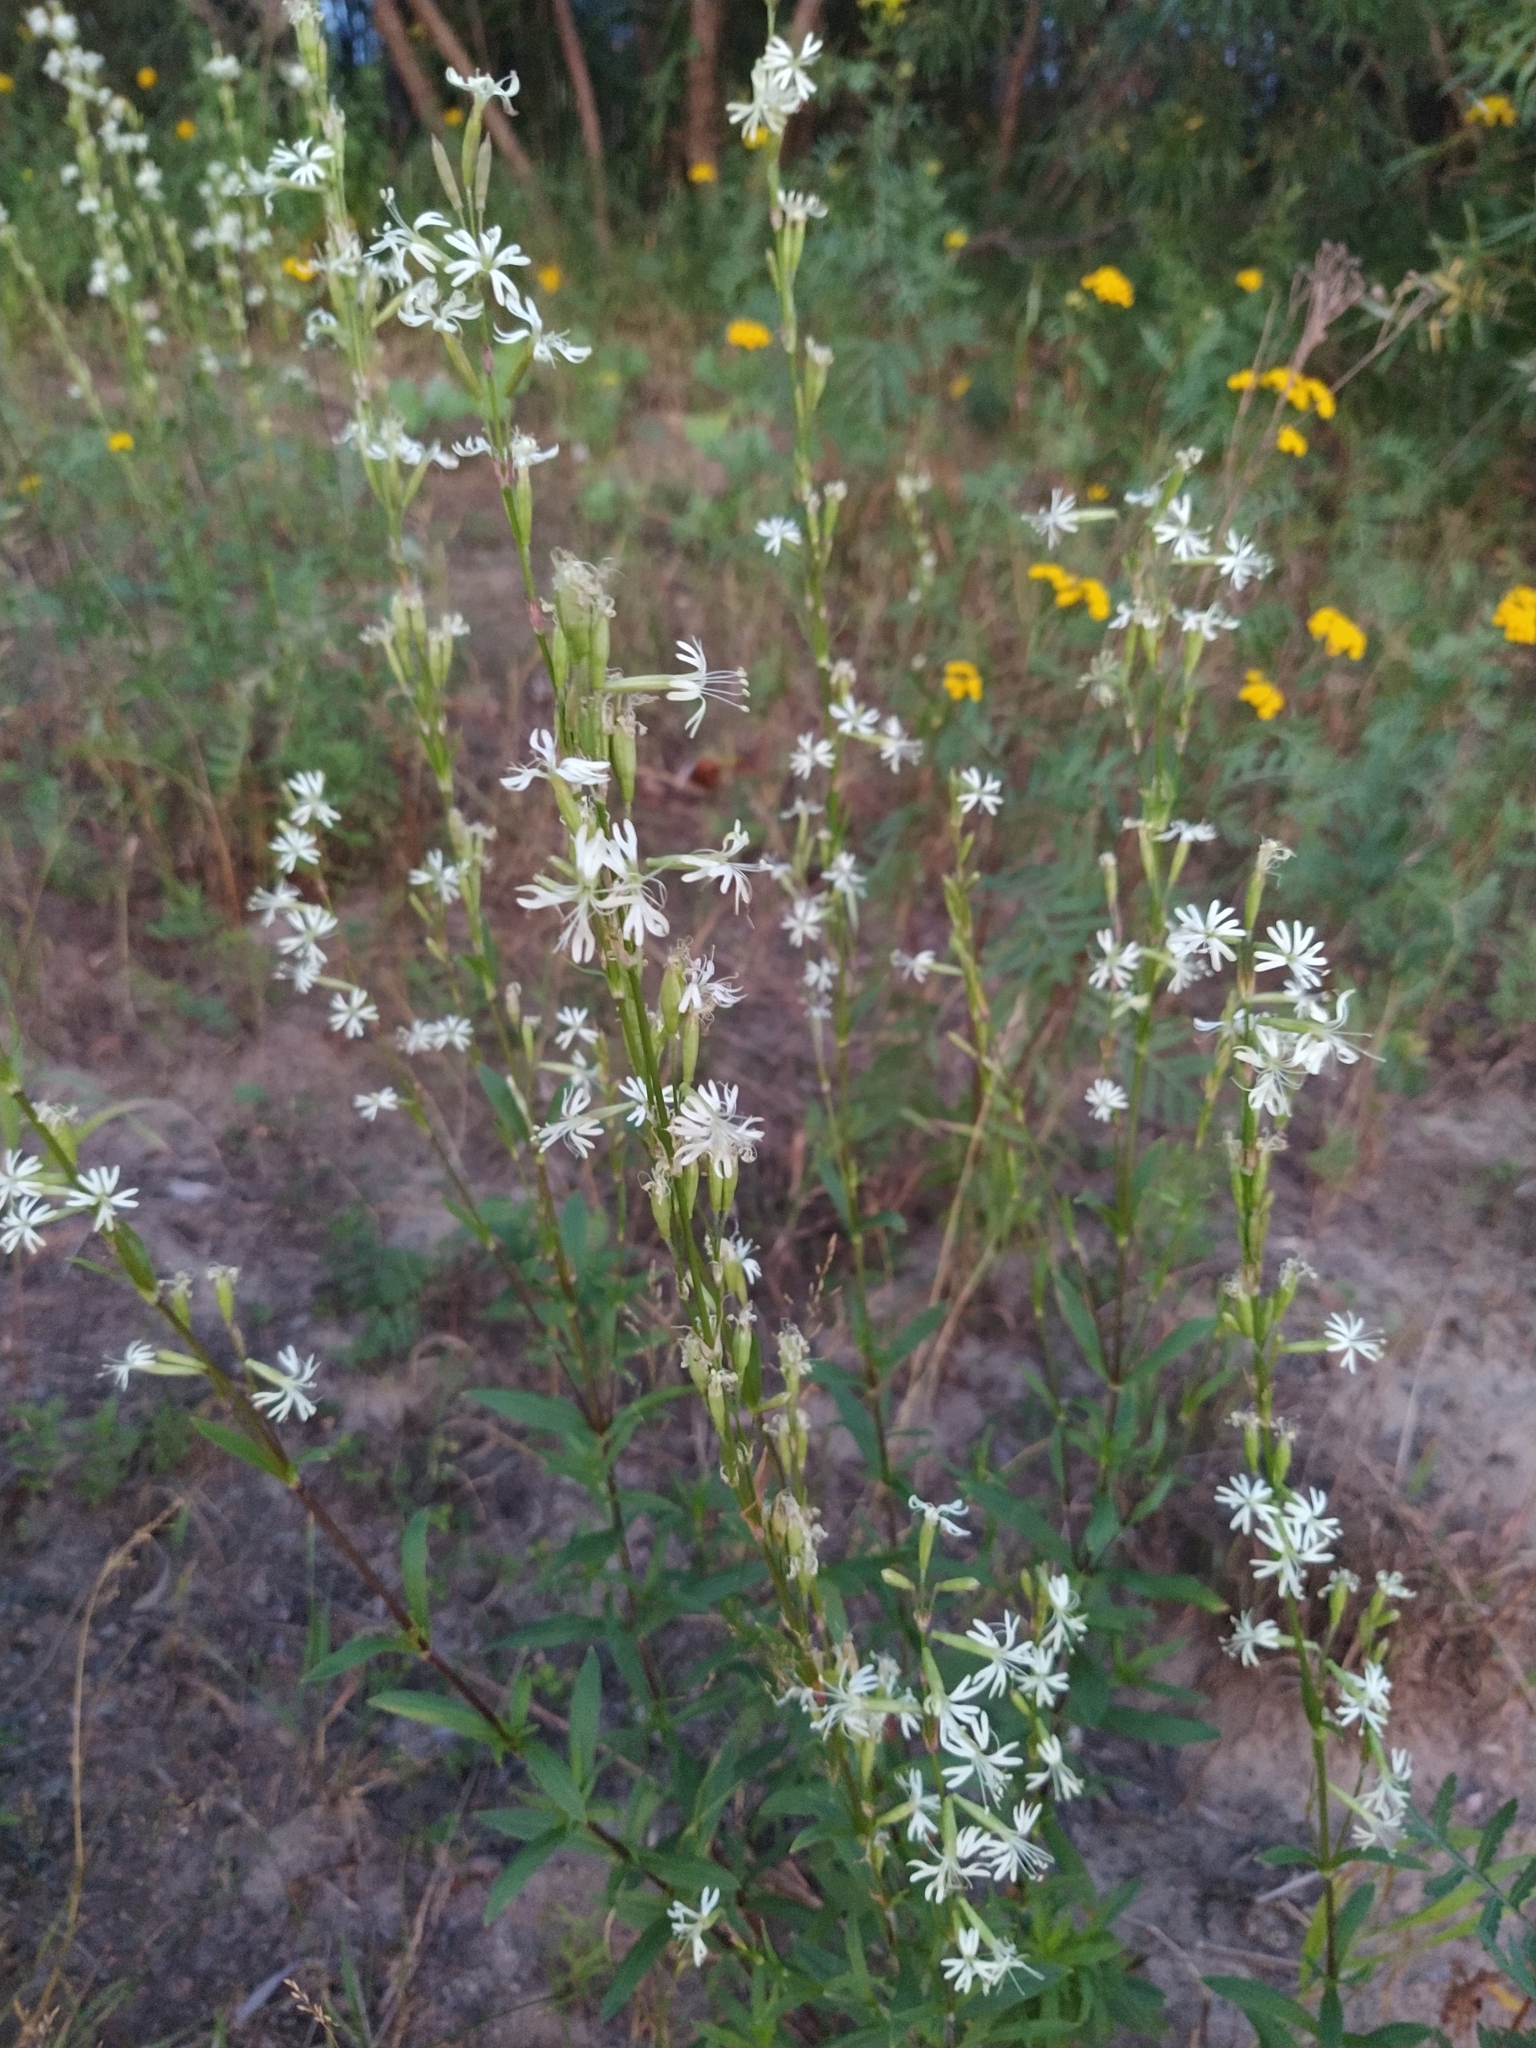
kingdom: Plantae
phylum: Tracheophyta
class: Magnoliopsida
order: Caryophyllales
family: Caryophyllaceae
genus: Silene
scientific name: Silene tatarica
